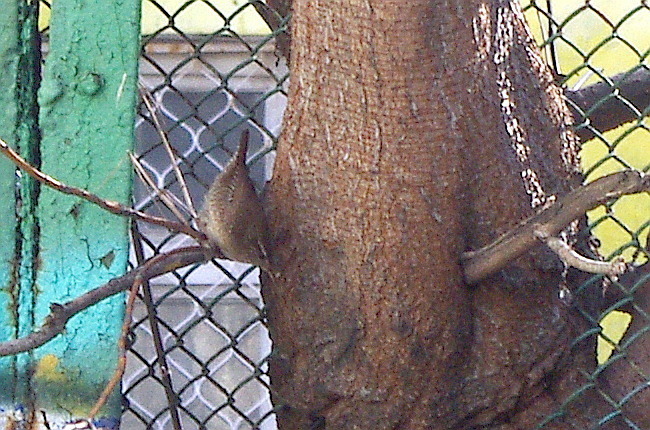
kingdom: Animalia
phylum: Chordata
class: Aves
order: Passeriformes
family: Troglodytidae
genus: Troglodytes
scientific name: Troglodytes troglodytes
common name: Eurasian wren
